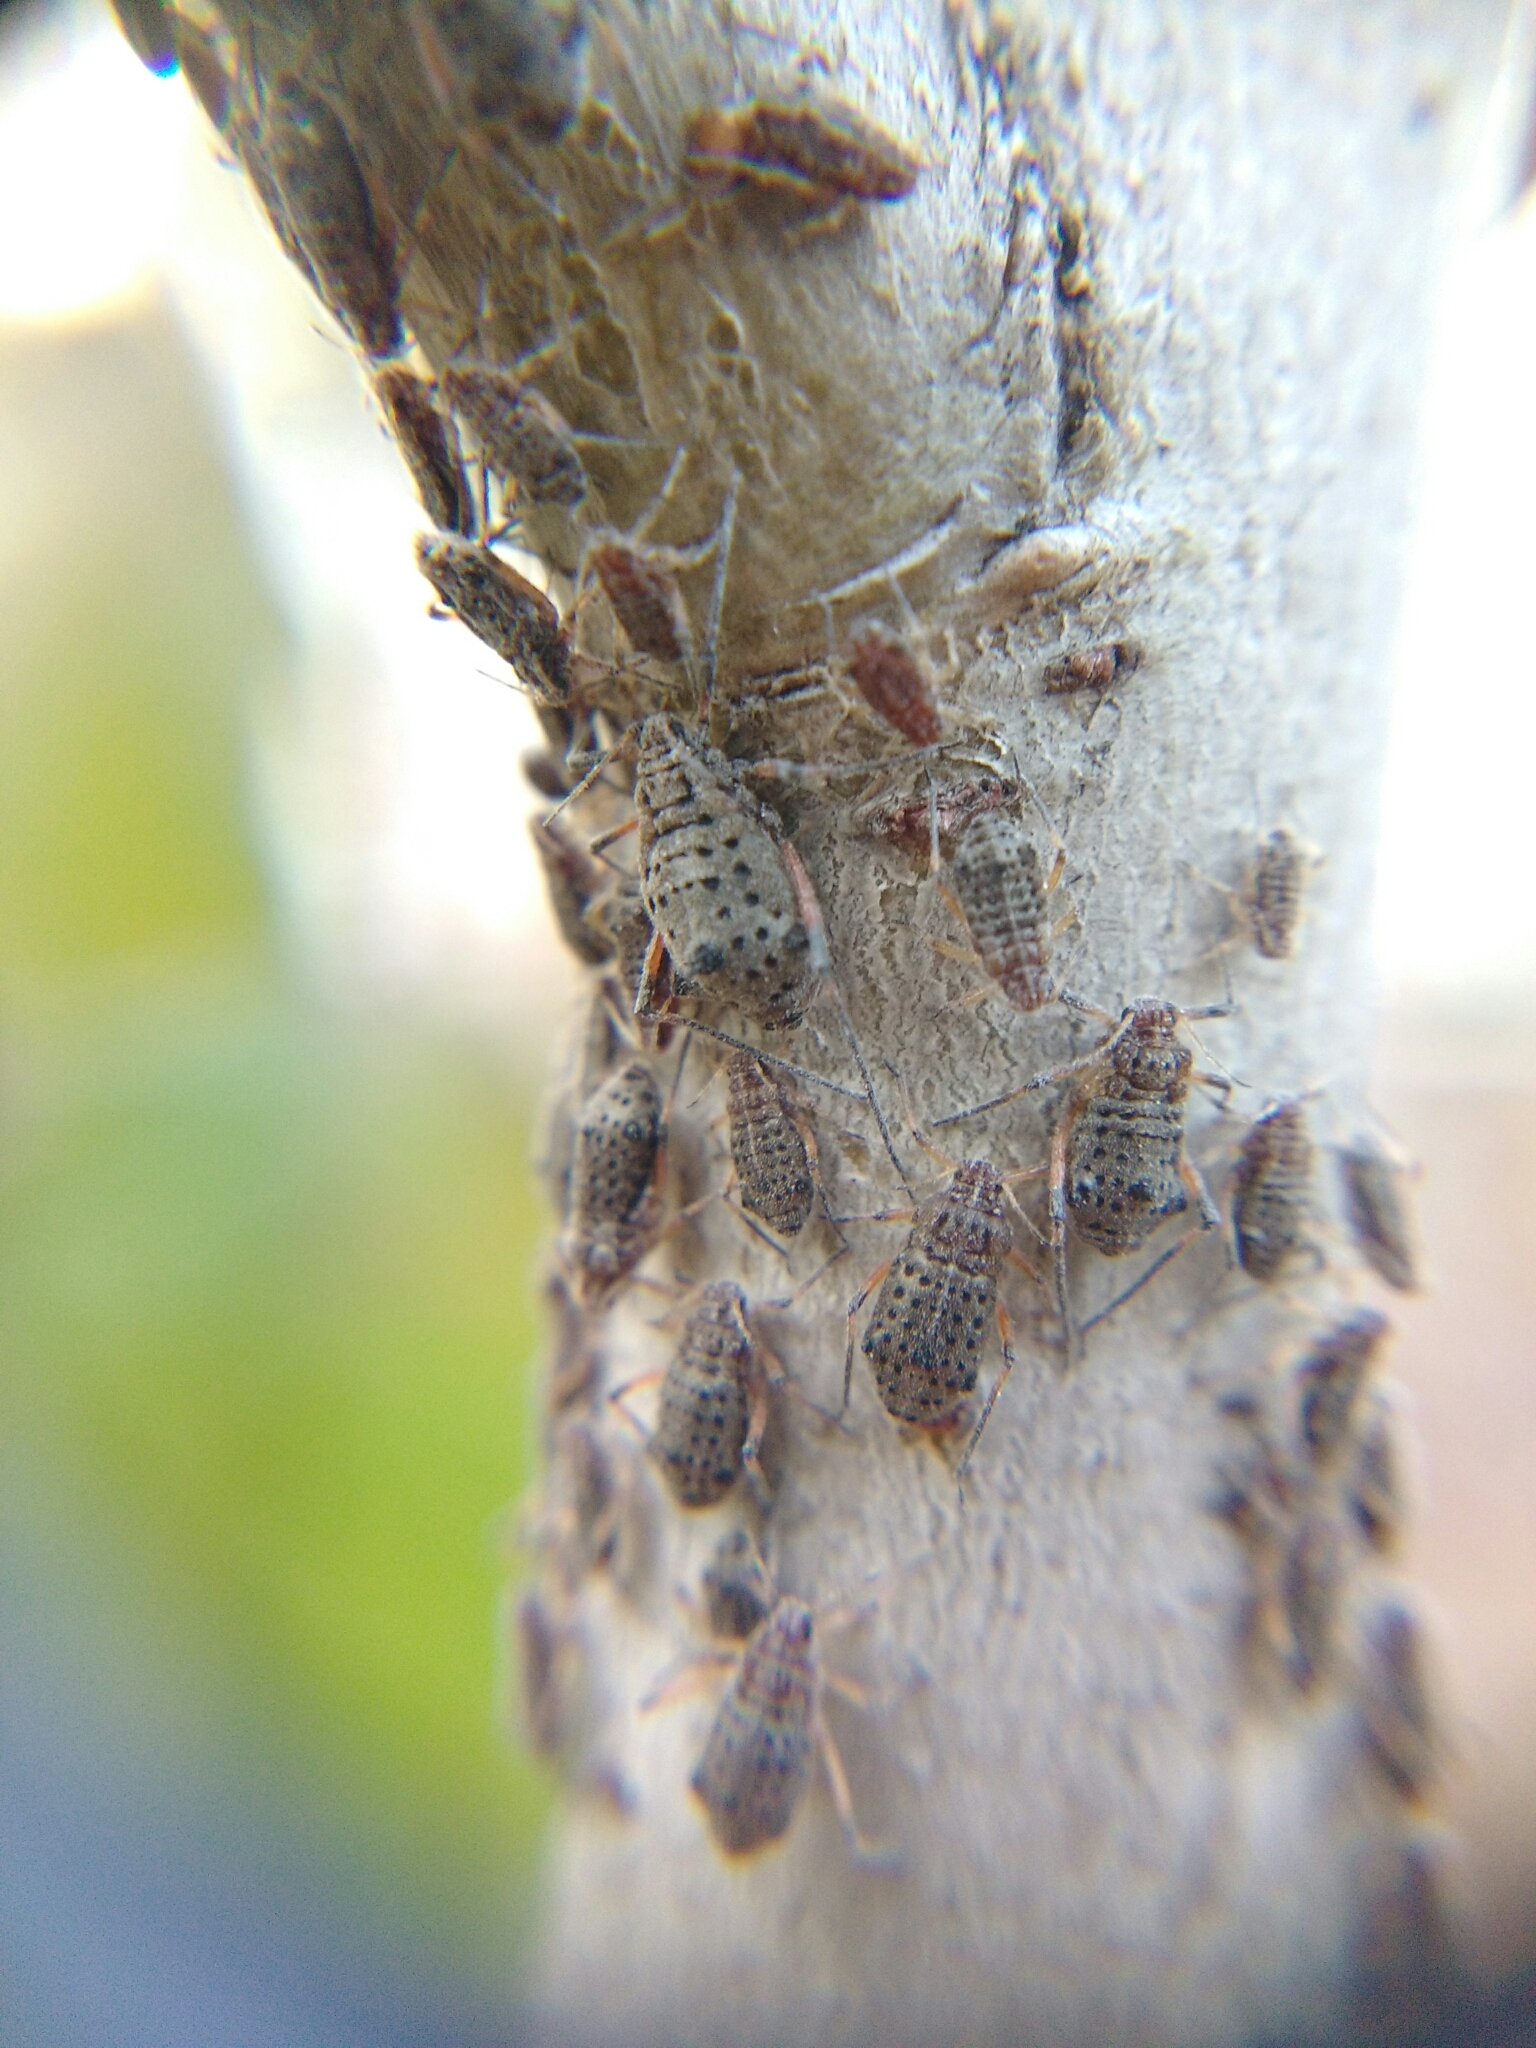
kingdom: Animalia
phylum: Arthropoda
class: Insecta
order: Hemiptera
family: Aphididae
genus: Tuberolachnus
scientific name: Tuberolachnus salignus
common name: Giant willow aphid
